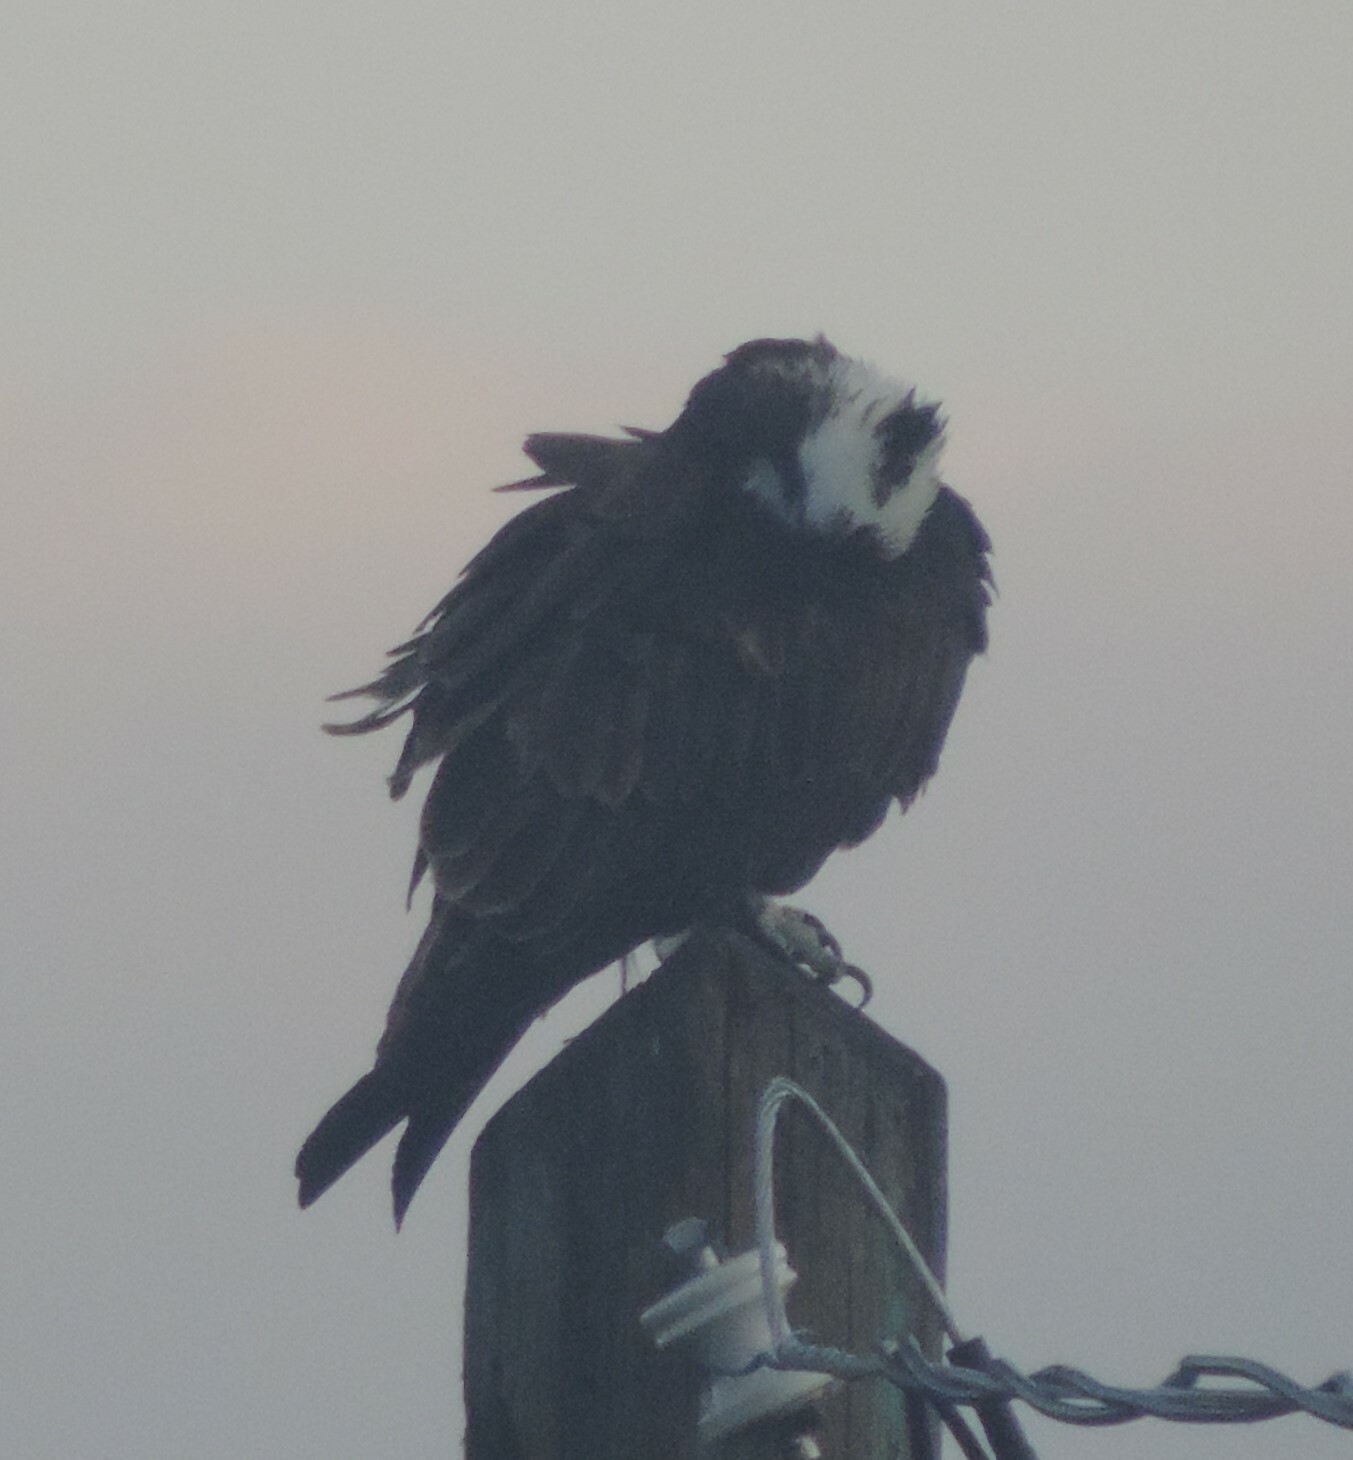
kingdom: Animalia
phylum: Chordata
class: Aves
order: Accipitriformes
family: Pandionidae
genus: Pandion
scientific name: Pandion haliaetus
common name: Osprey
